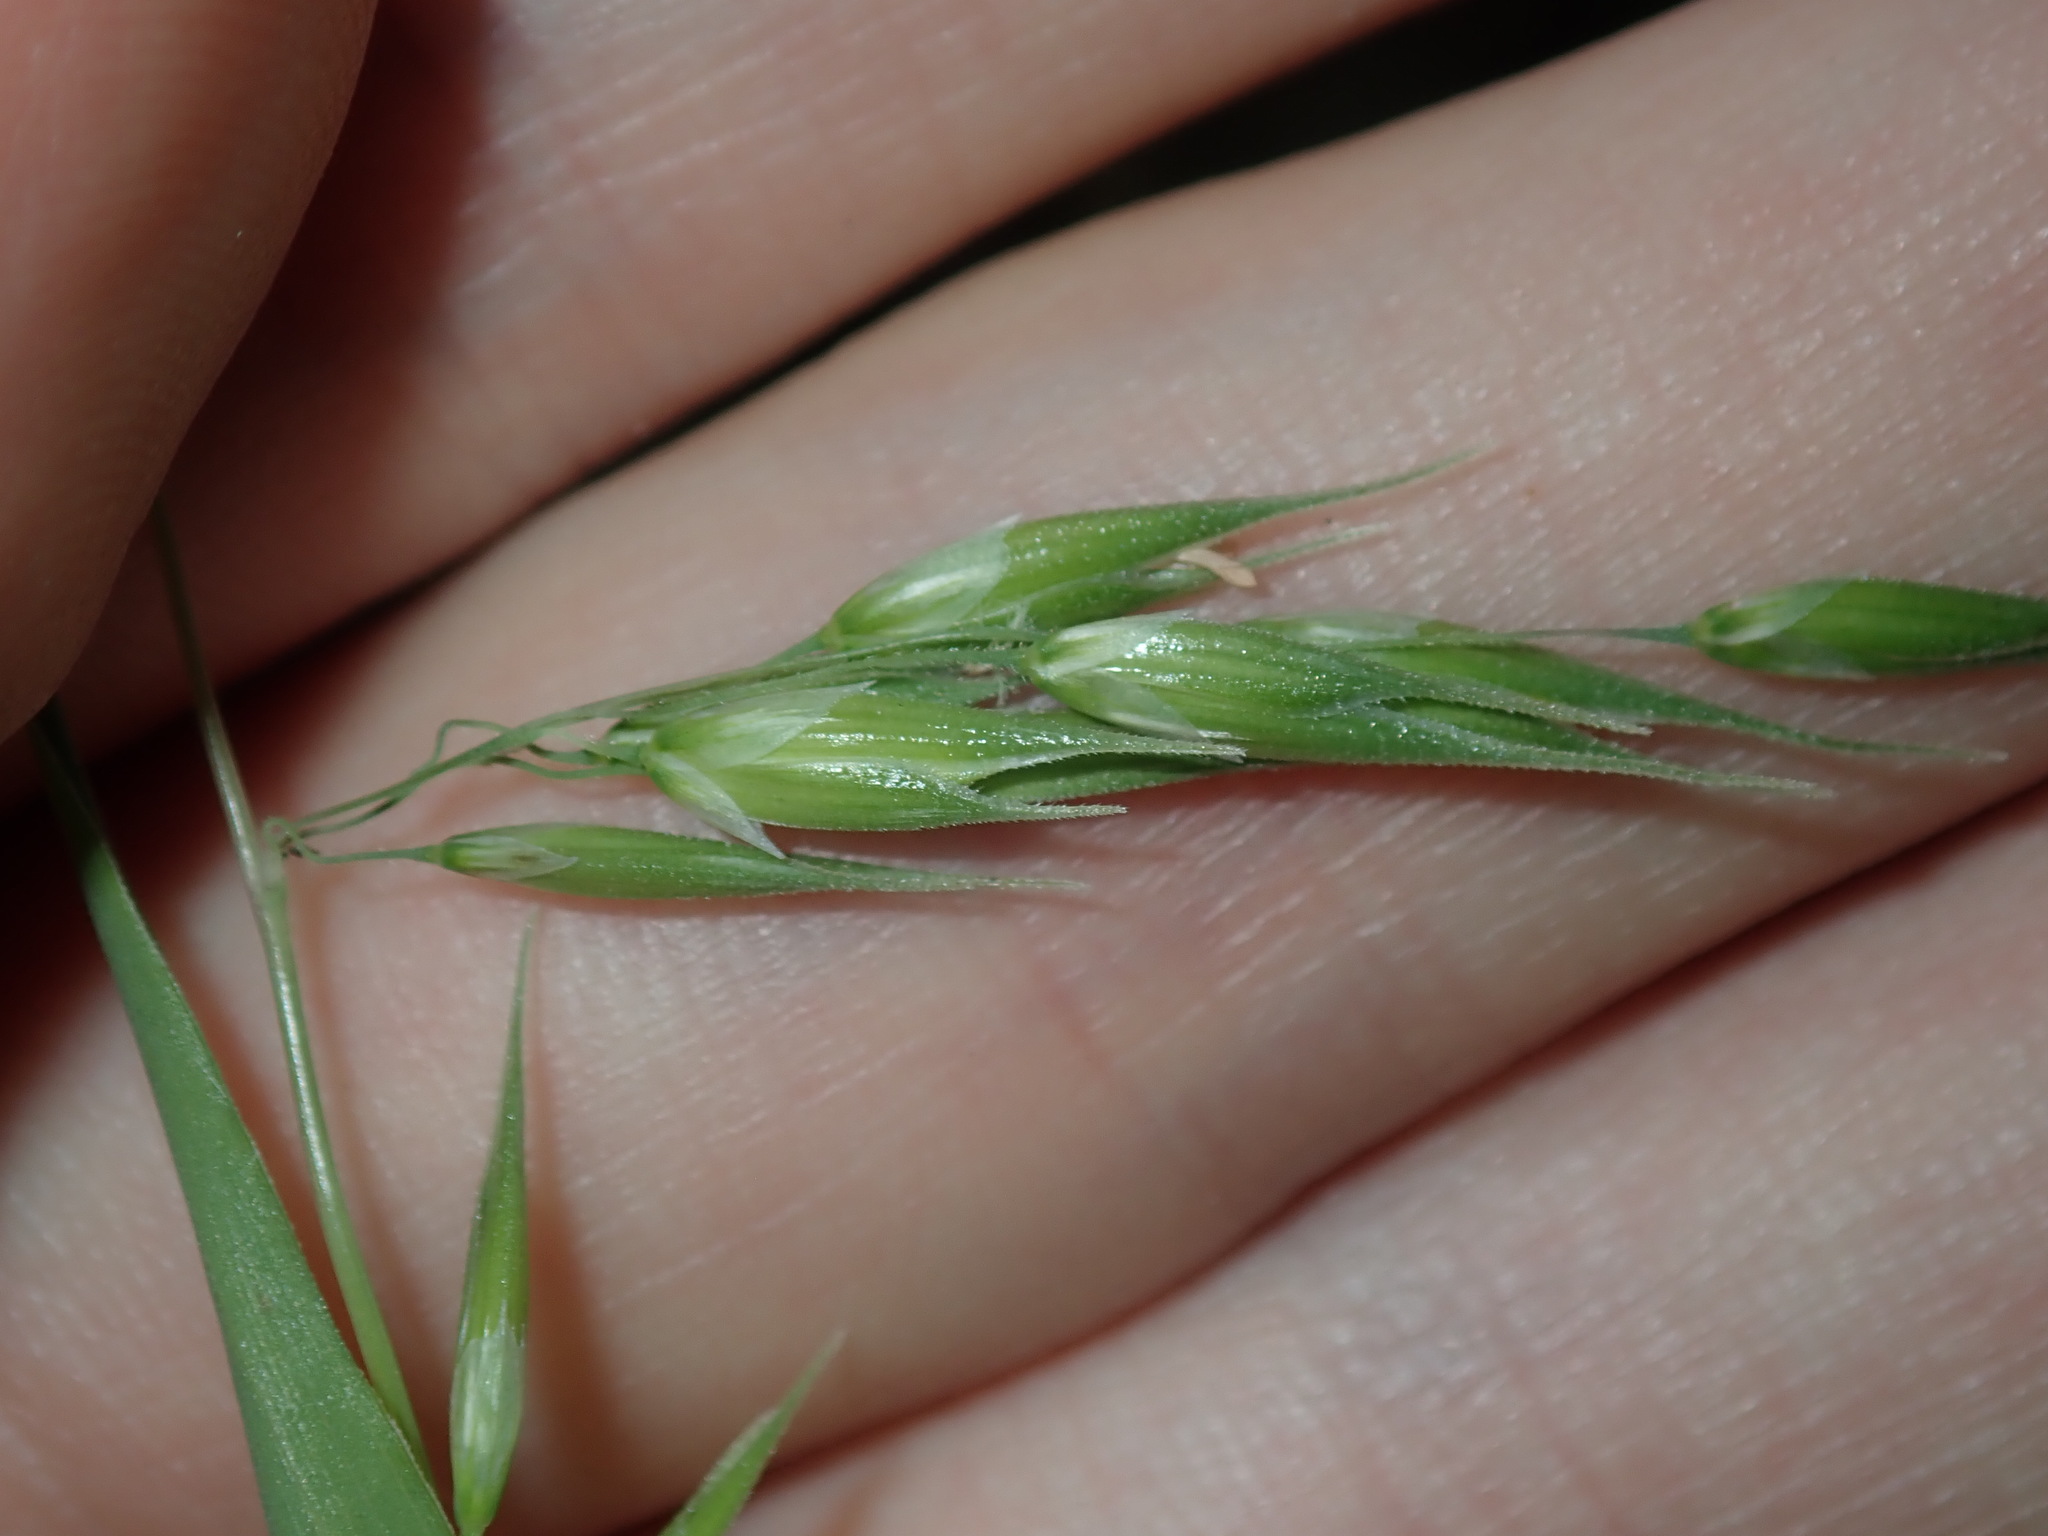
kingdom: Plantae
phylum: Tracheophyta
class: Liliopsida
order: Poales
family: Poaceae
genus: Ehrharta
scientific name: Ehrharta longiflora
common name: Longflowered veldtgrass
